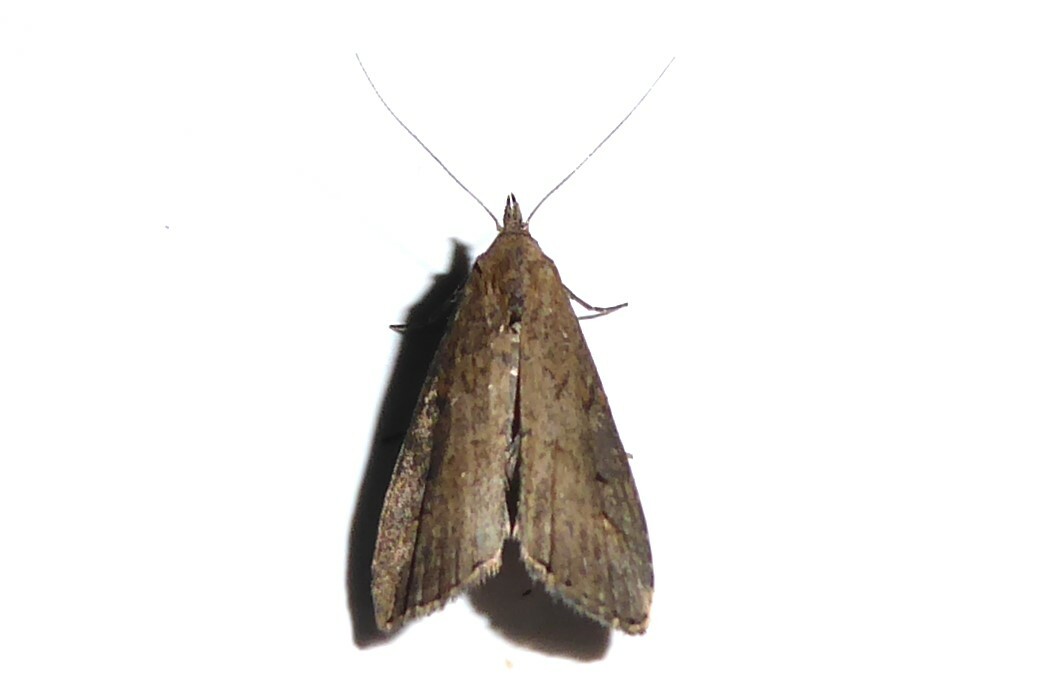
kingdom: Animalia
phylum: Arthropoda
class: Insecta
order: Lepidoptera
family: Erebidae
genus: Schrankia
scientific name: Schrankia costaestrigalis
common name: Pinion-streaked snout
